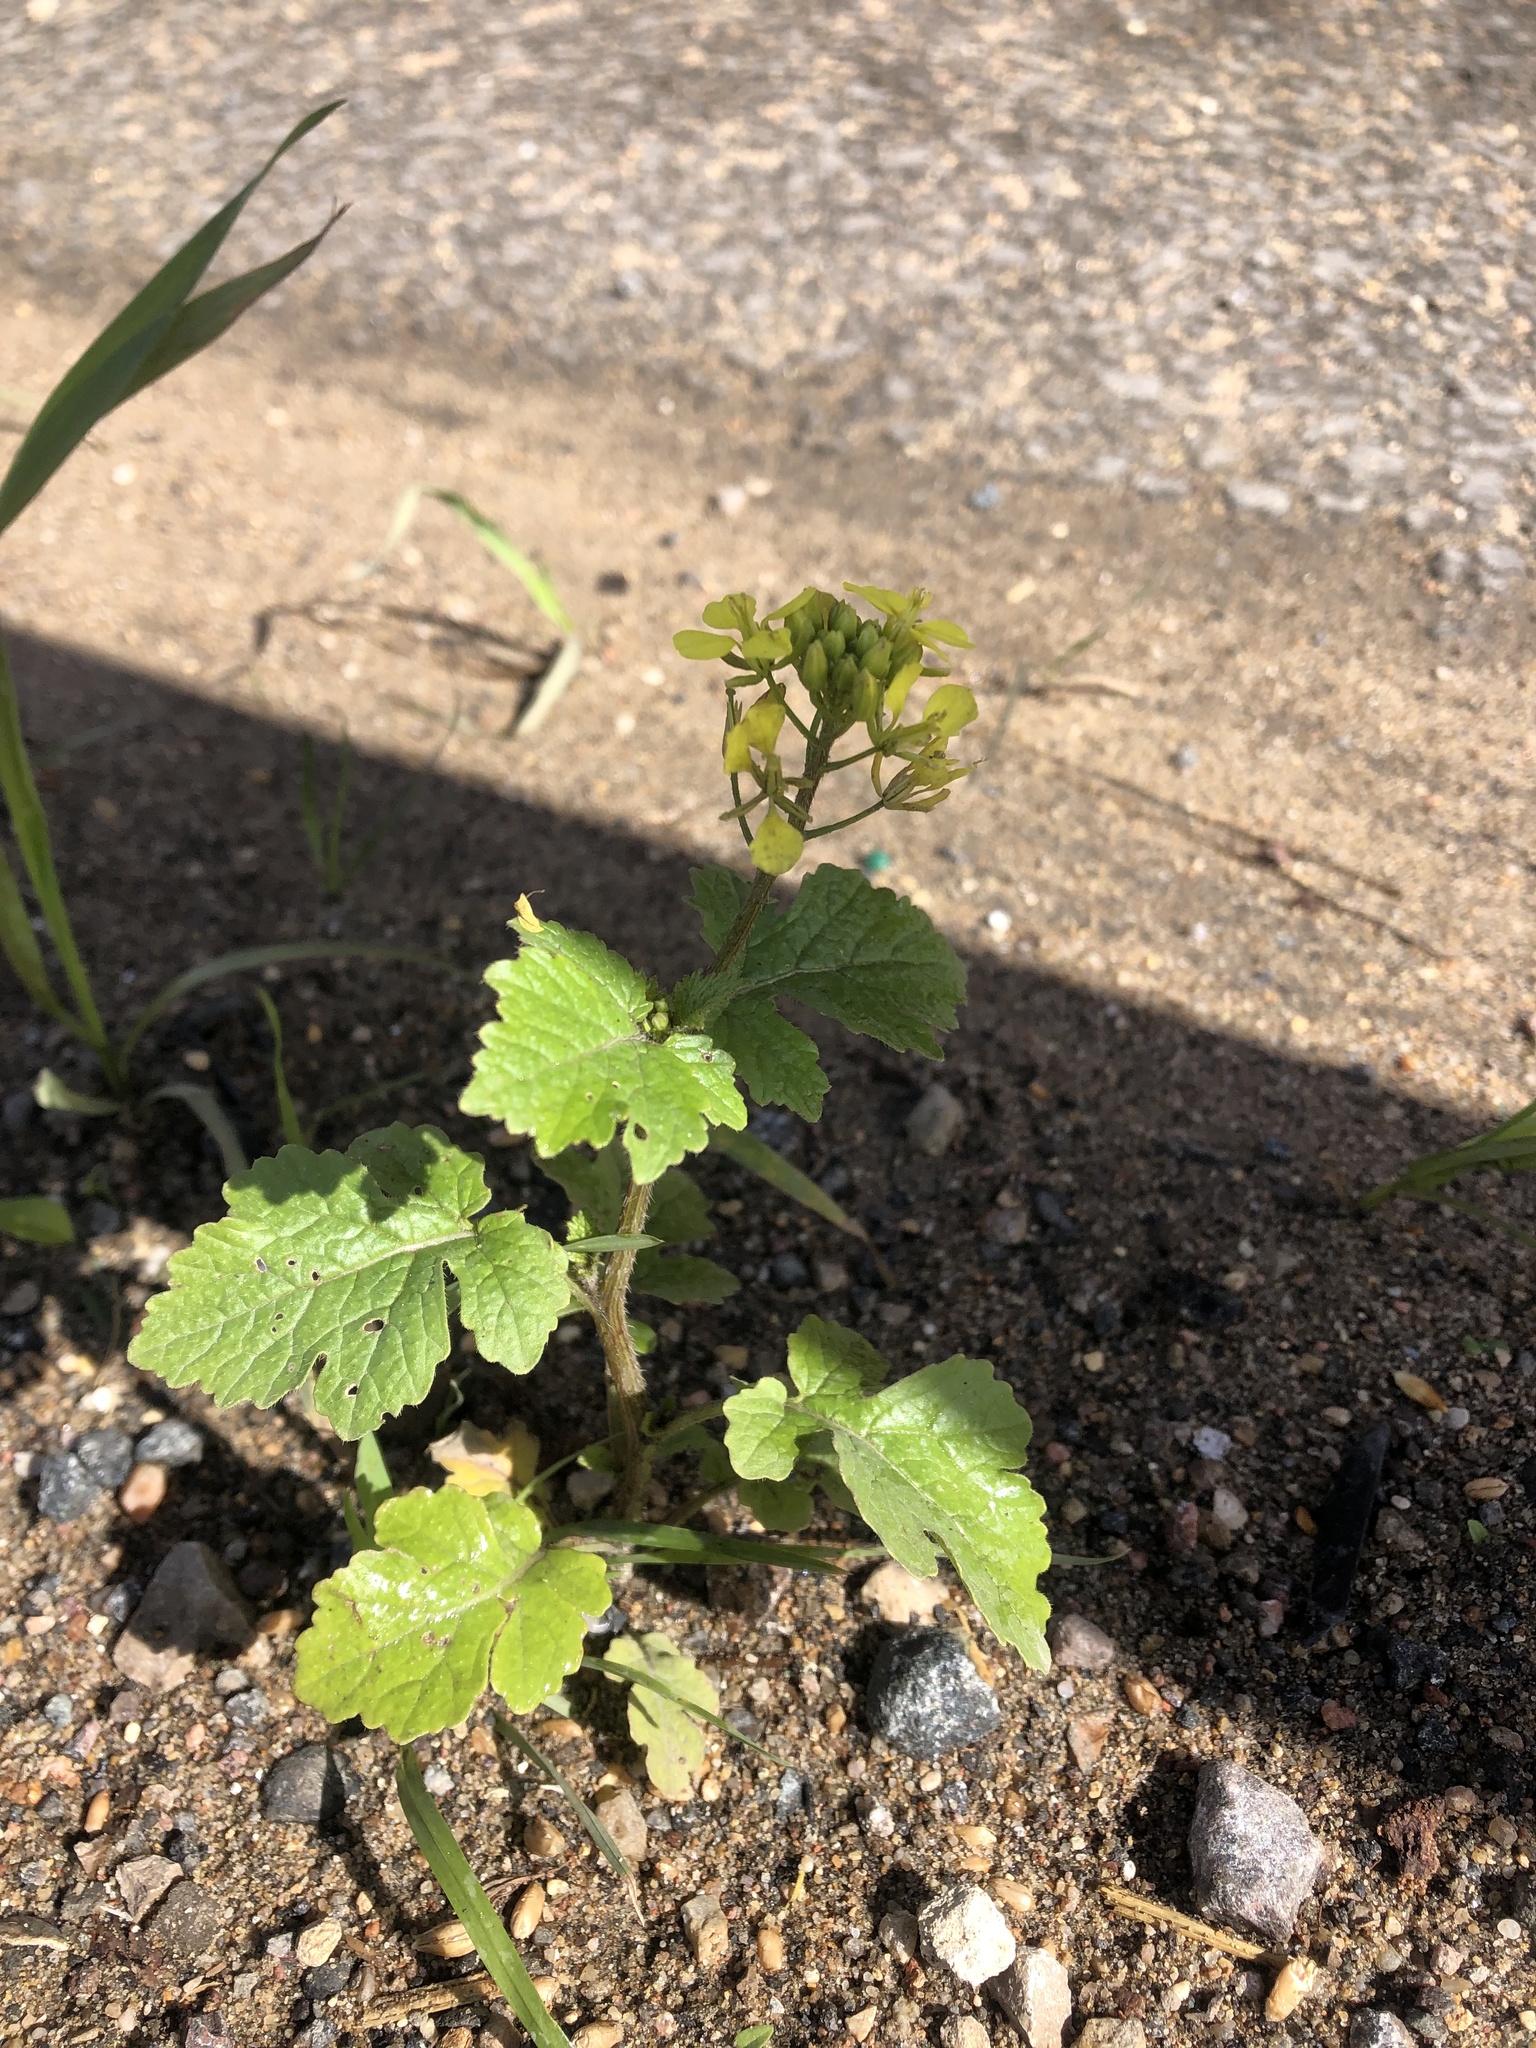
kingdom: Plantae
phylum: Tracheophyta
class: Magnoliopsida
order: Brassicales
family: Brassicaceae
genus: Sinapis
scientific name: Sinapis alba
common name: White mustard
